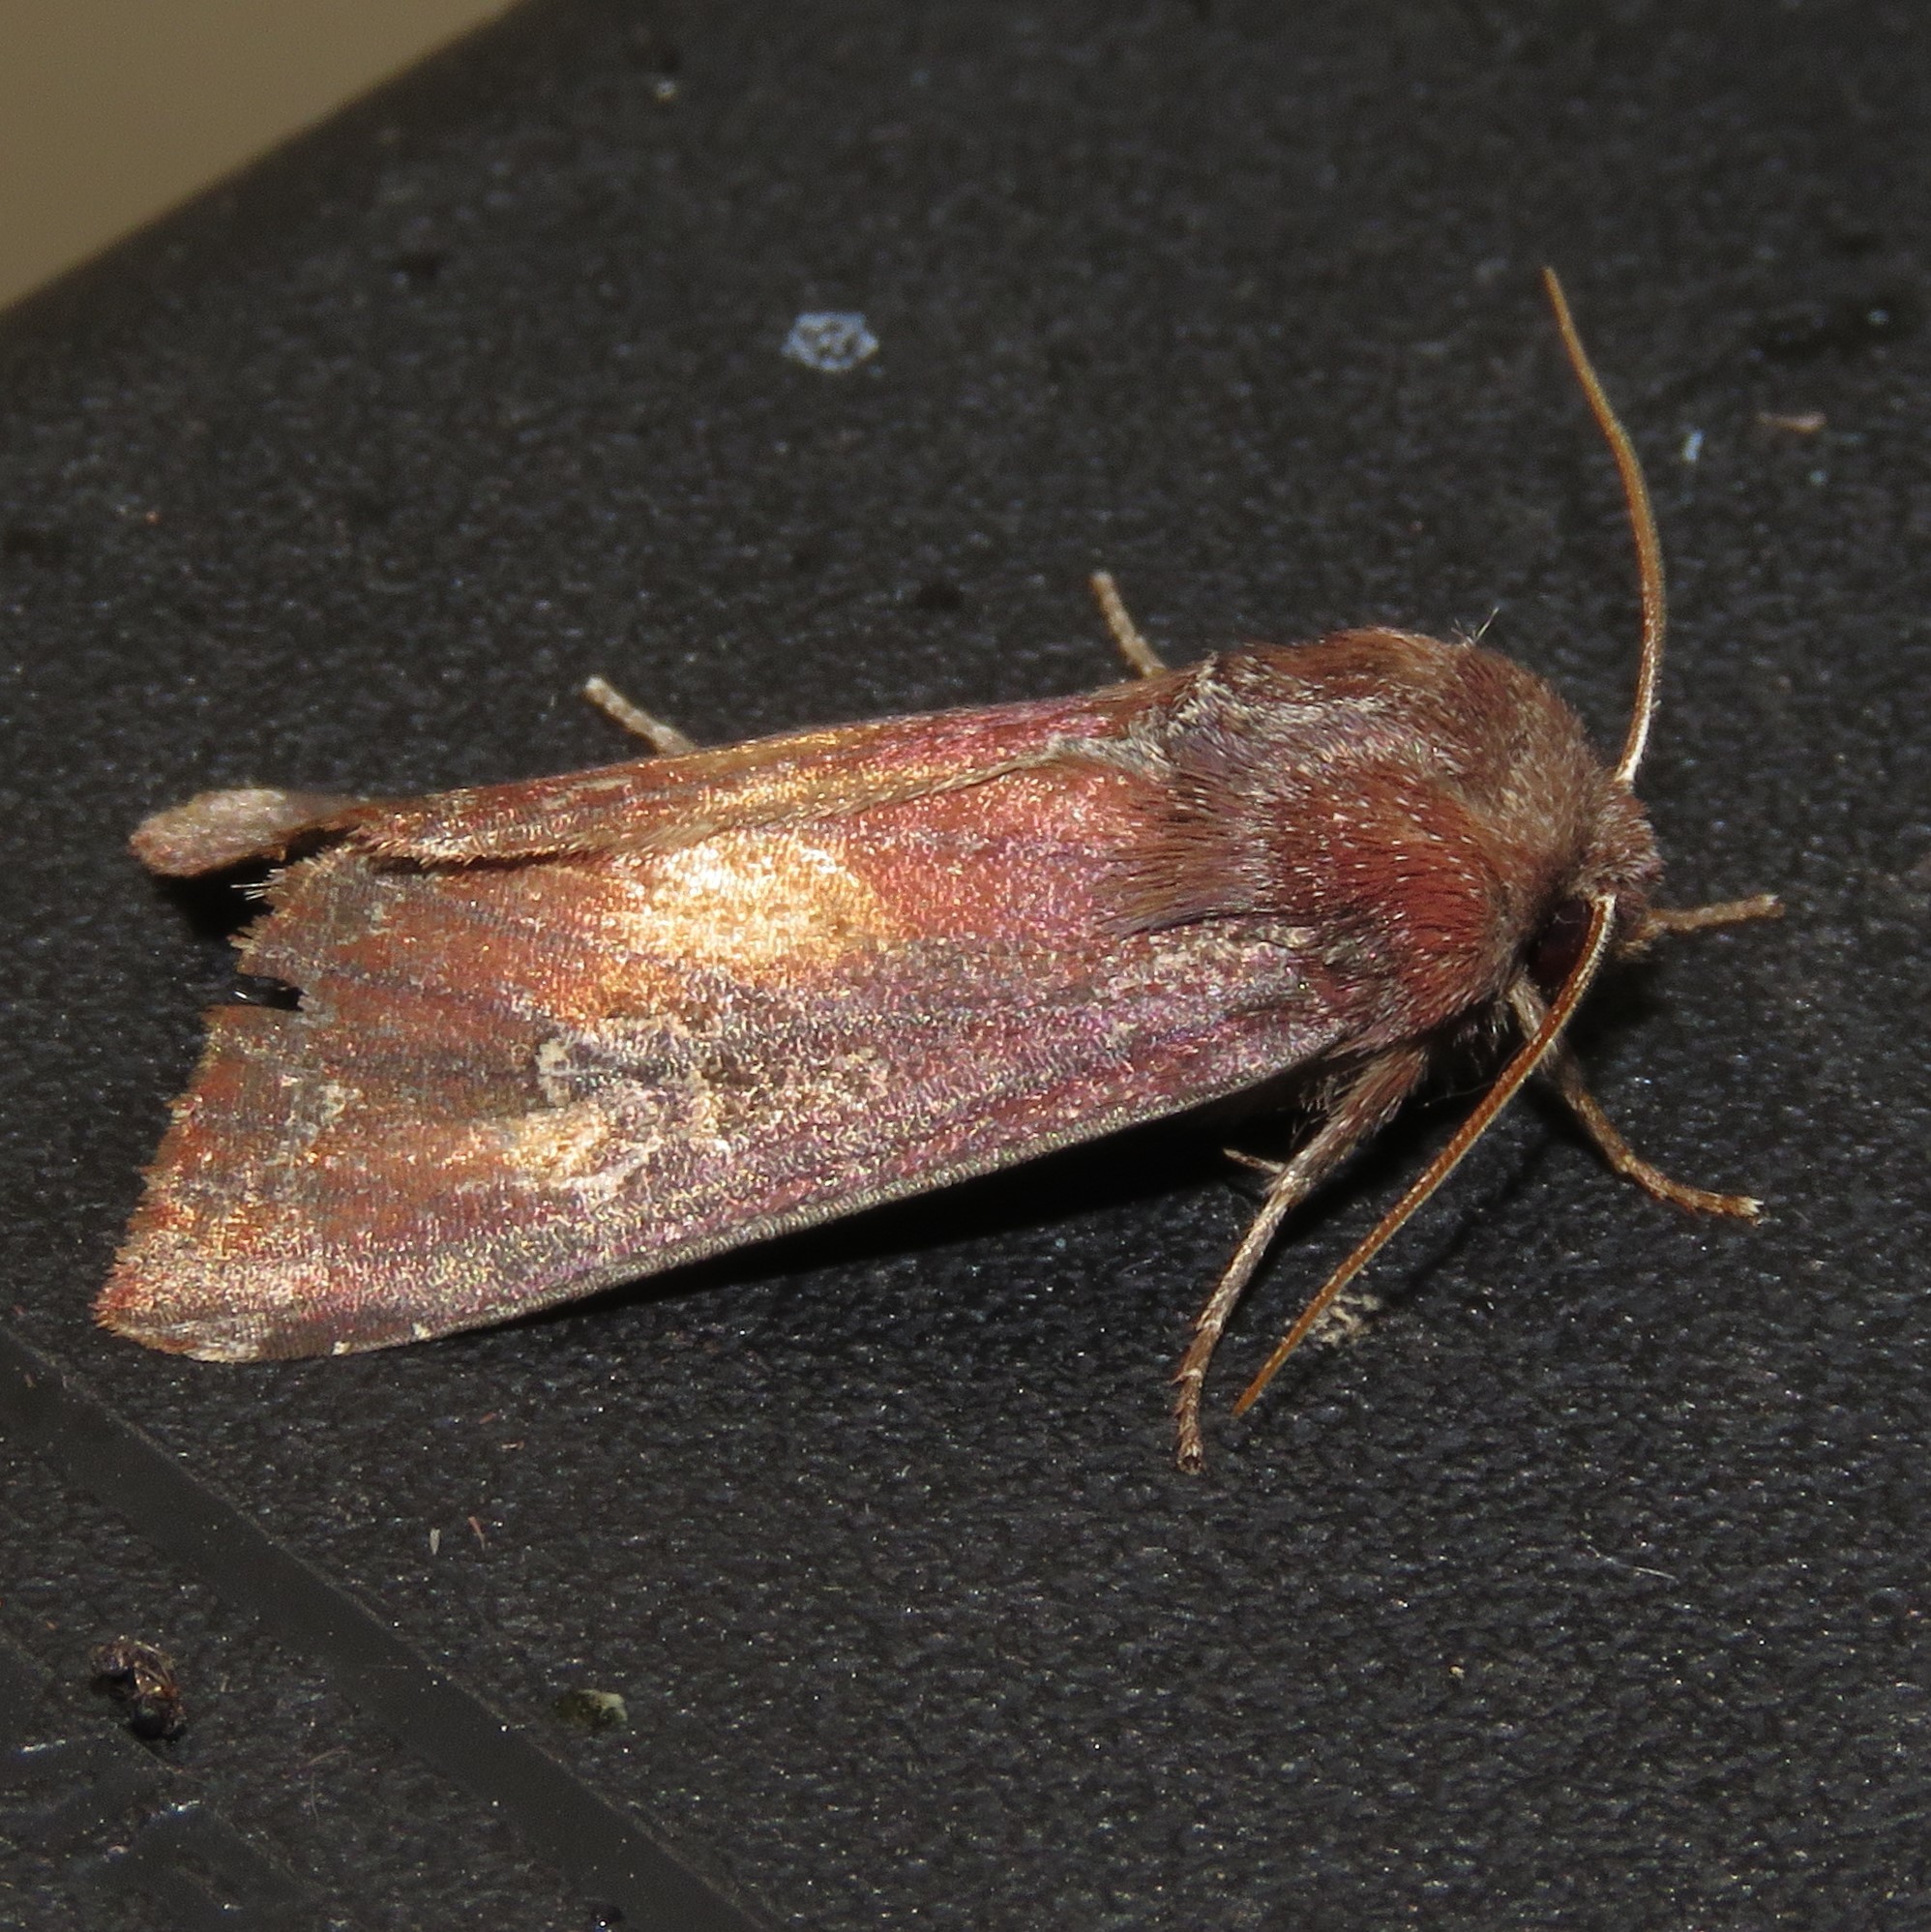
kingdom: Animalia
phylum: Arthropoda
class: Insecta
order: Lepidoptera
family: Noctuidae
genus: Melanchra
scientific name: Melanchra picta
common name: Zebra caterpillar
